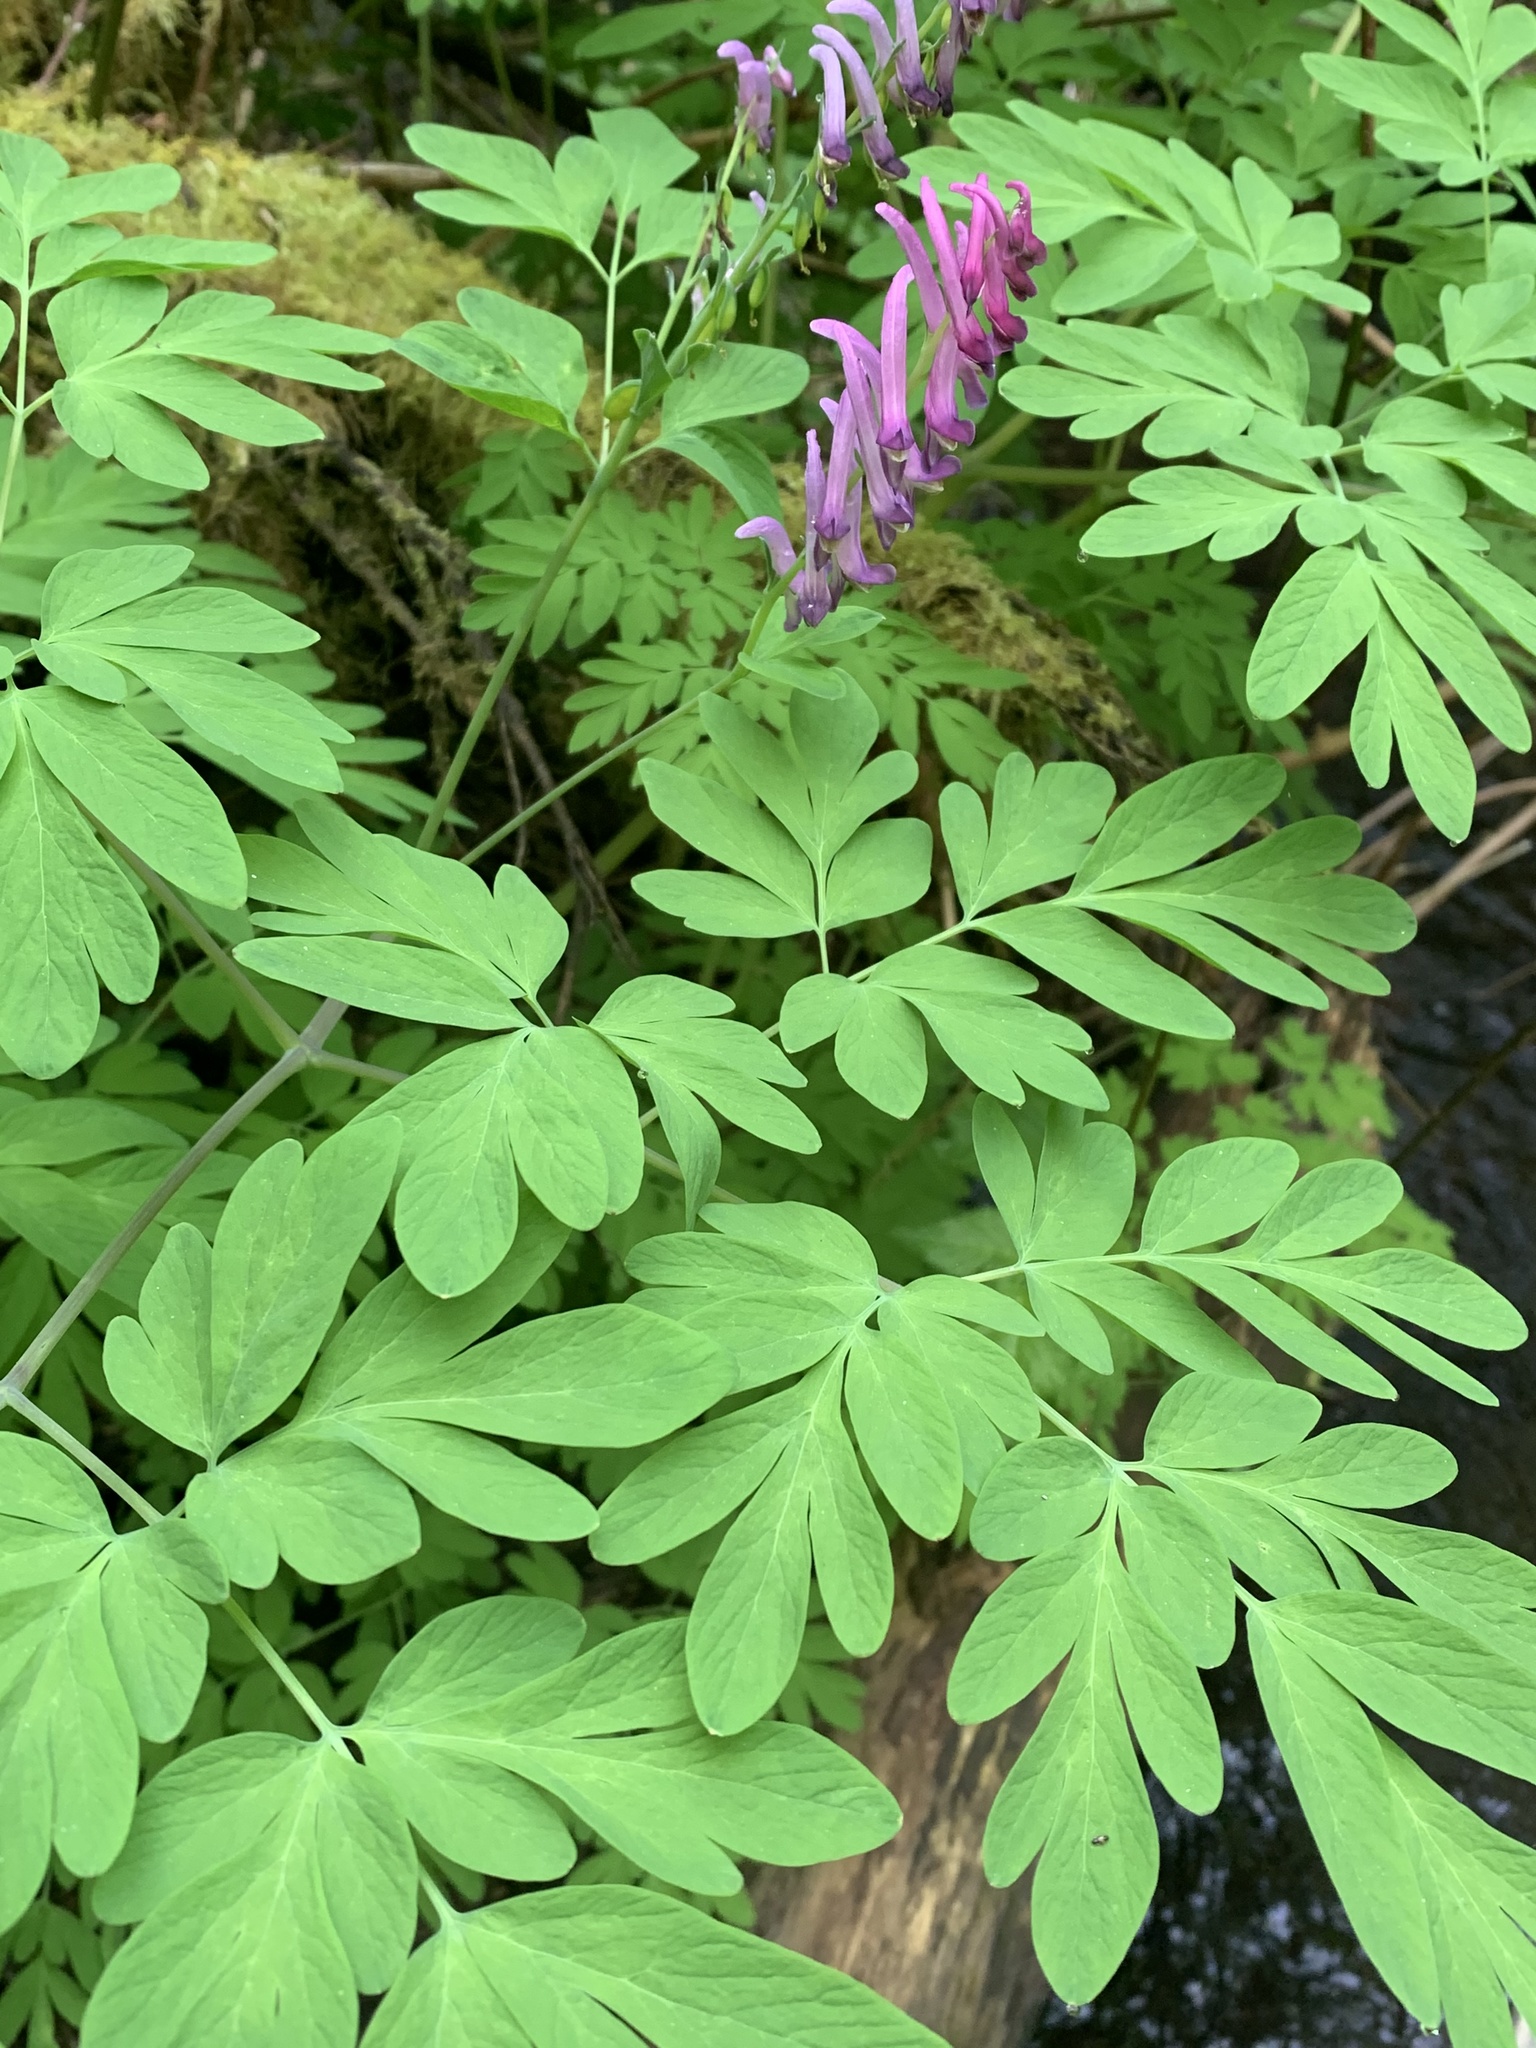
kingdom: Plantae
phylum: Tracheophyta
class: Magnoliopsida
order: Ranunculales
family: Papaveraceae
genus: Corydalis
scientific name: Corydalis scouleri
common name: Scouler's corydalis
